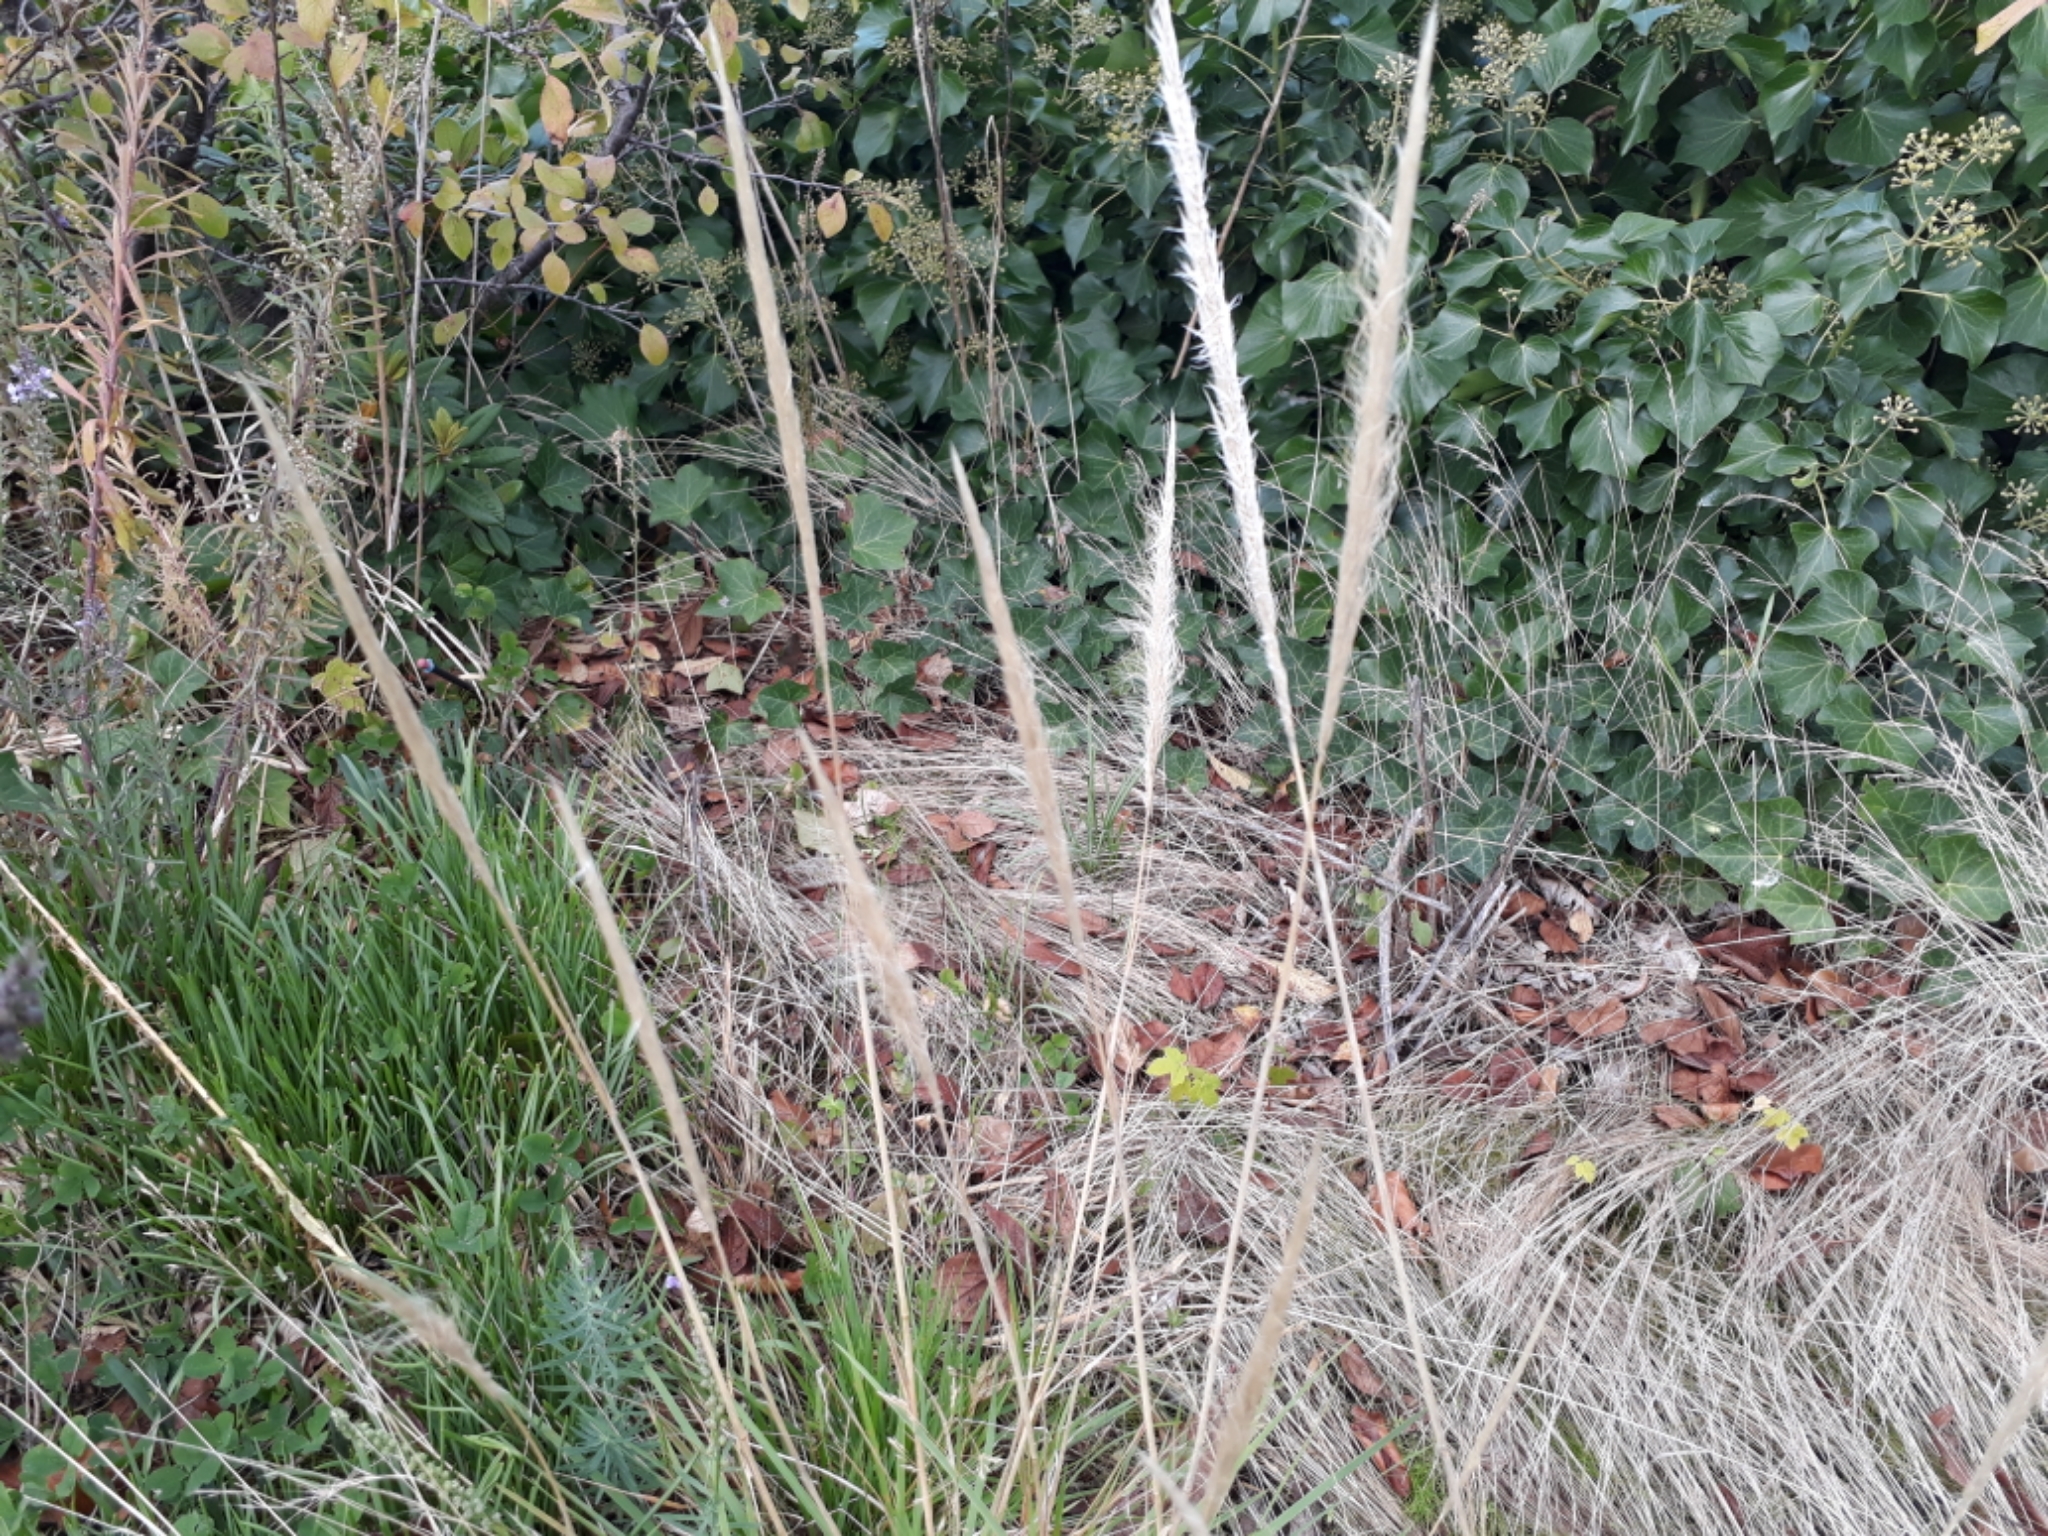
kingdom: Plantae
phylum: Tracheophyta
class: Liliopsida
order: Poales
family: Poaceae
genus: Dichelachne
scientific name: Dichelachne crinita
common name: Clovenfoot plumegrass
